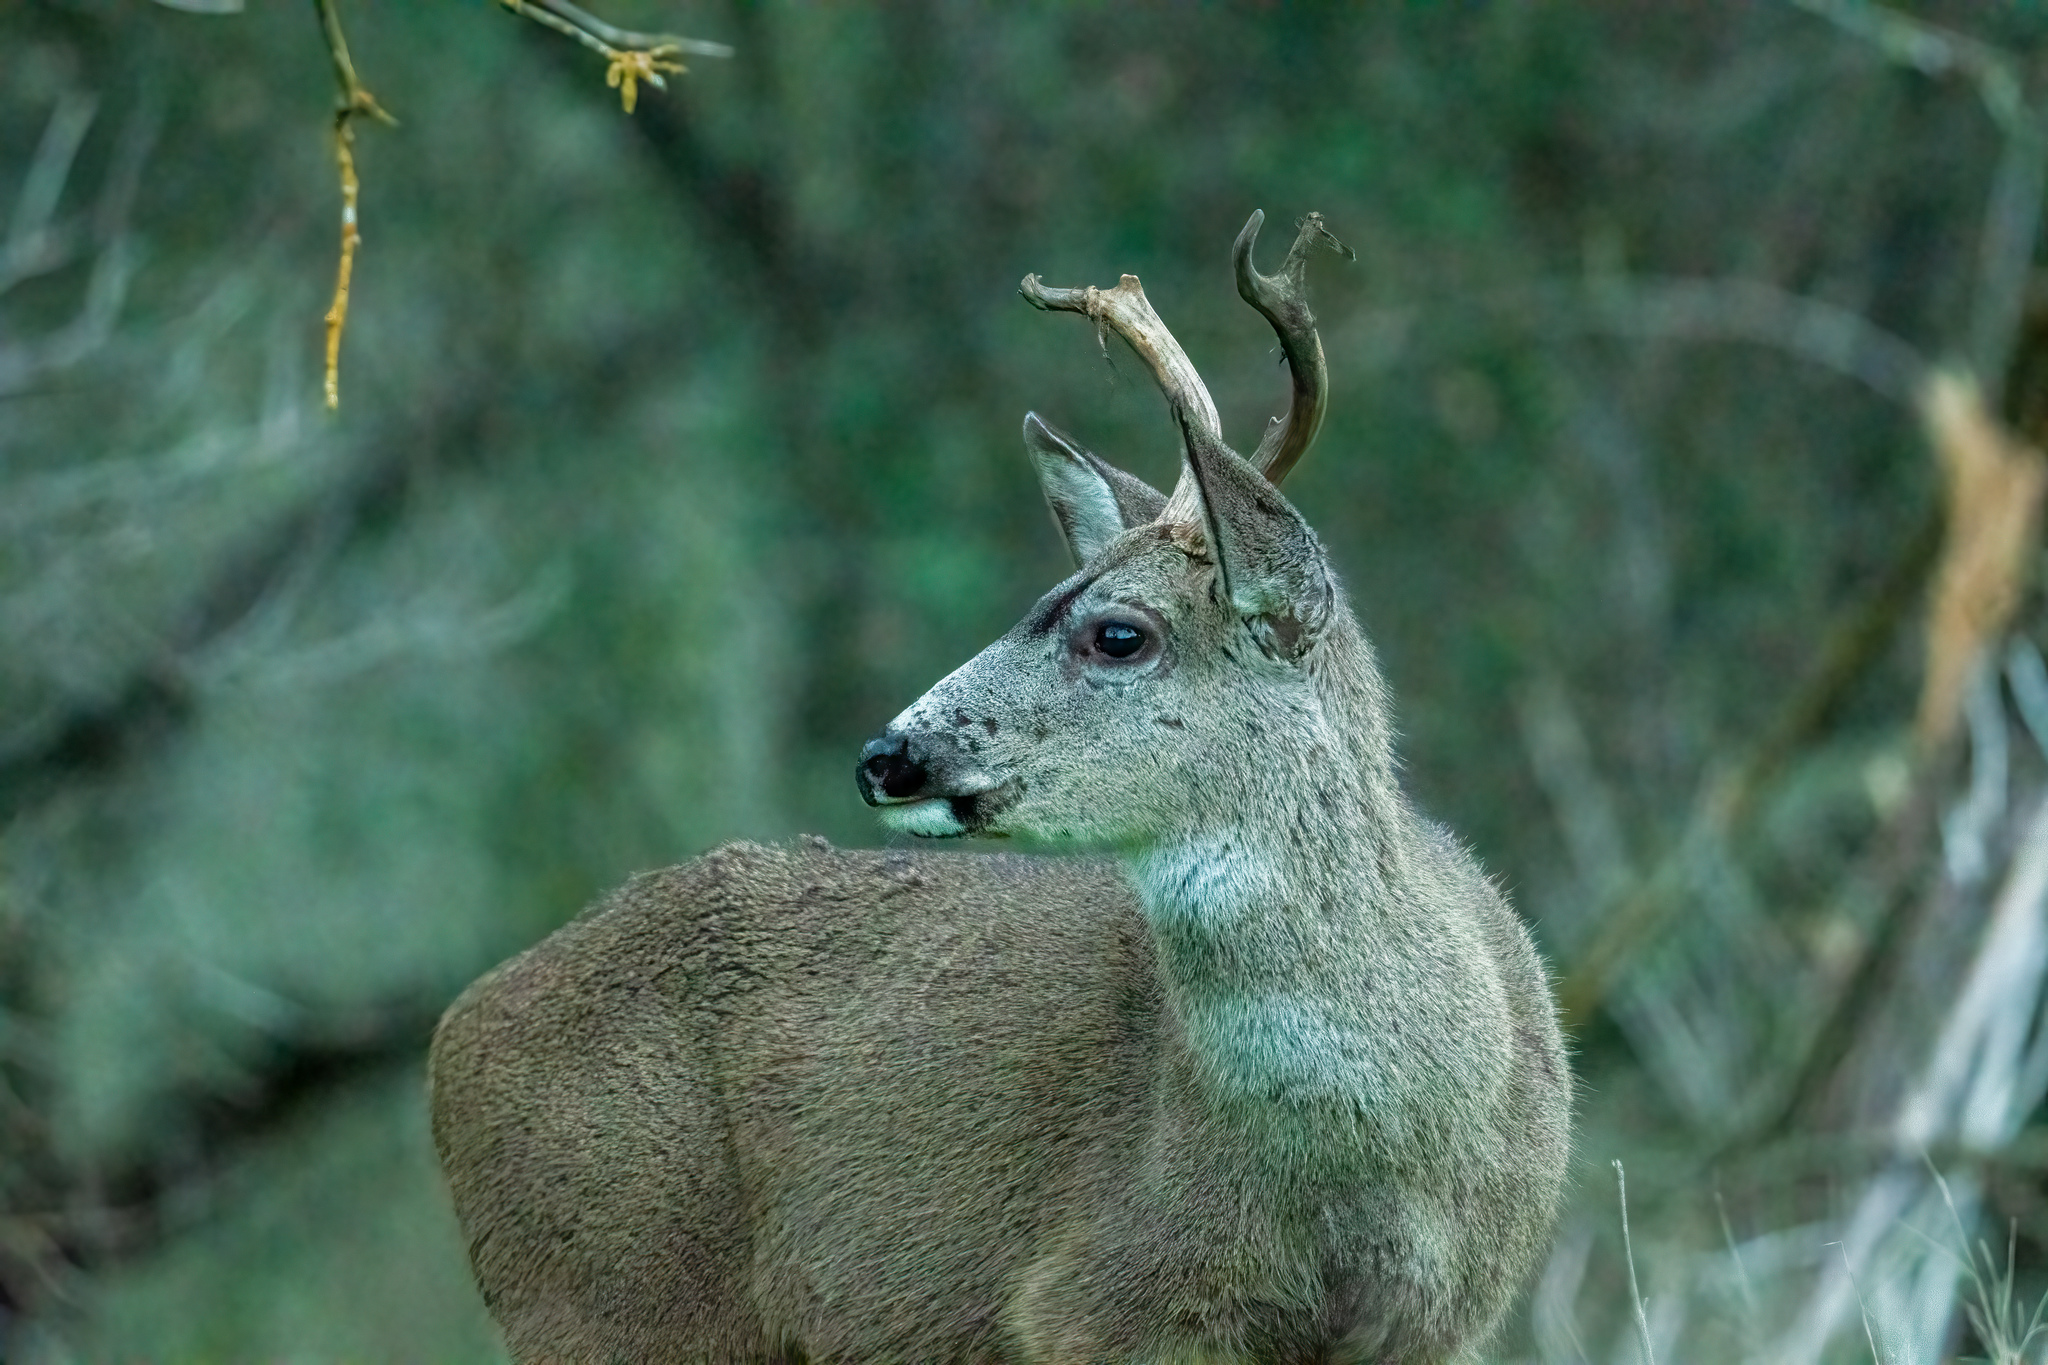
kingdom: Animalia
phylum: Chordata
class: Mammalia
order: Artiodactyla
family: Cervidae
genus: Odocoileus
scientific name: Odocoileus hemionus
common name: Mule deer
